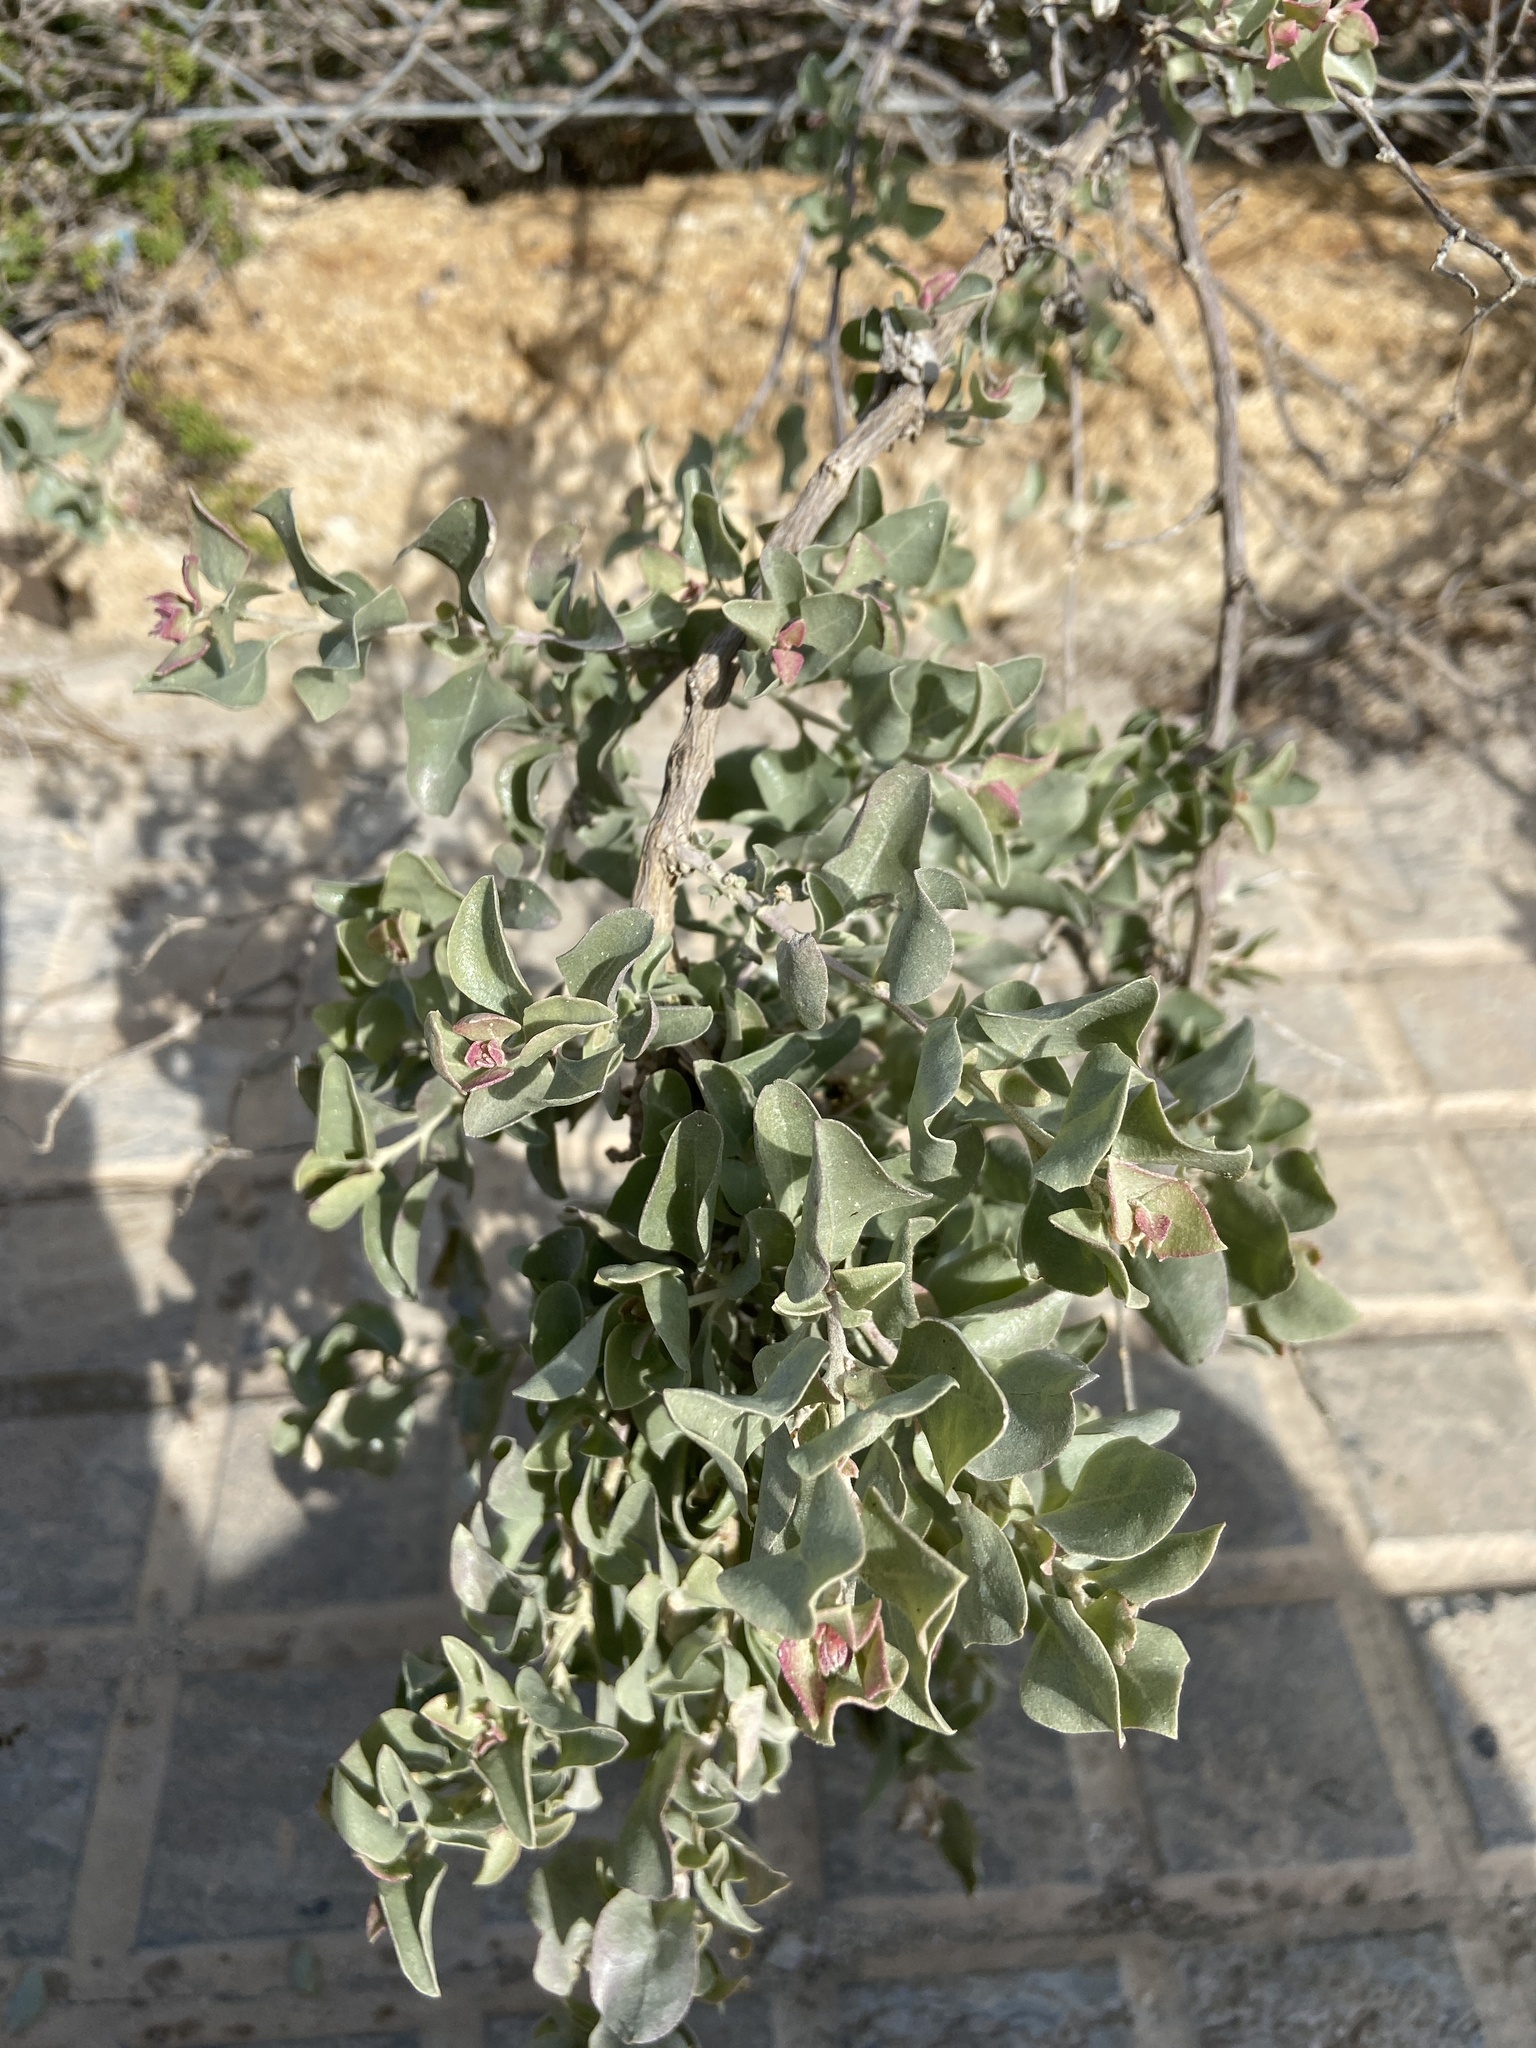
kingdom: Plantae
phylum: Tracheophyta
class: Magnoliopsida
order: Caryophyllales
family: Amaranthaceae
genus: Atriplex
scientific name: Atriplex halimus
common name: Shrubby orache
